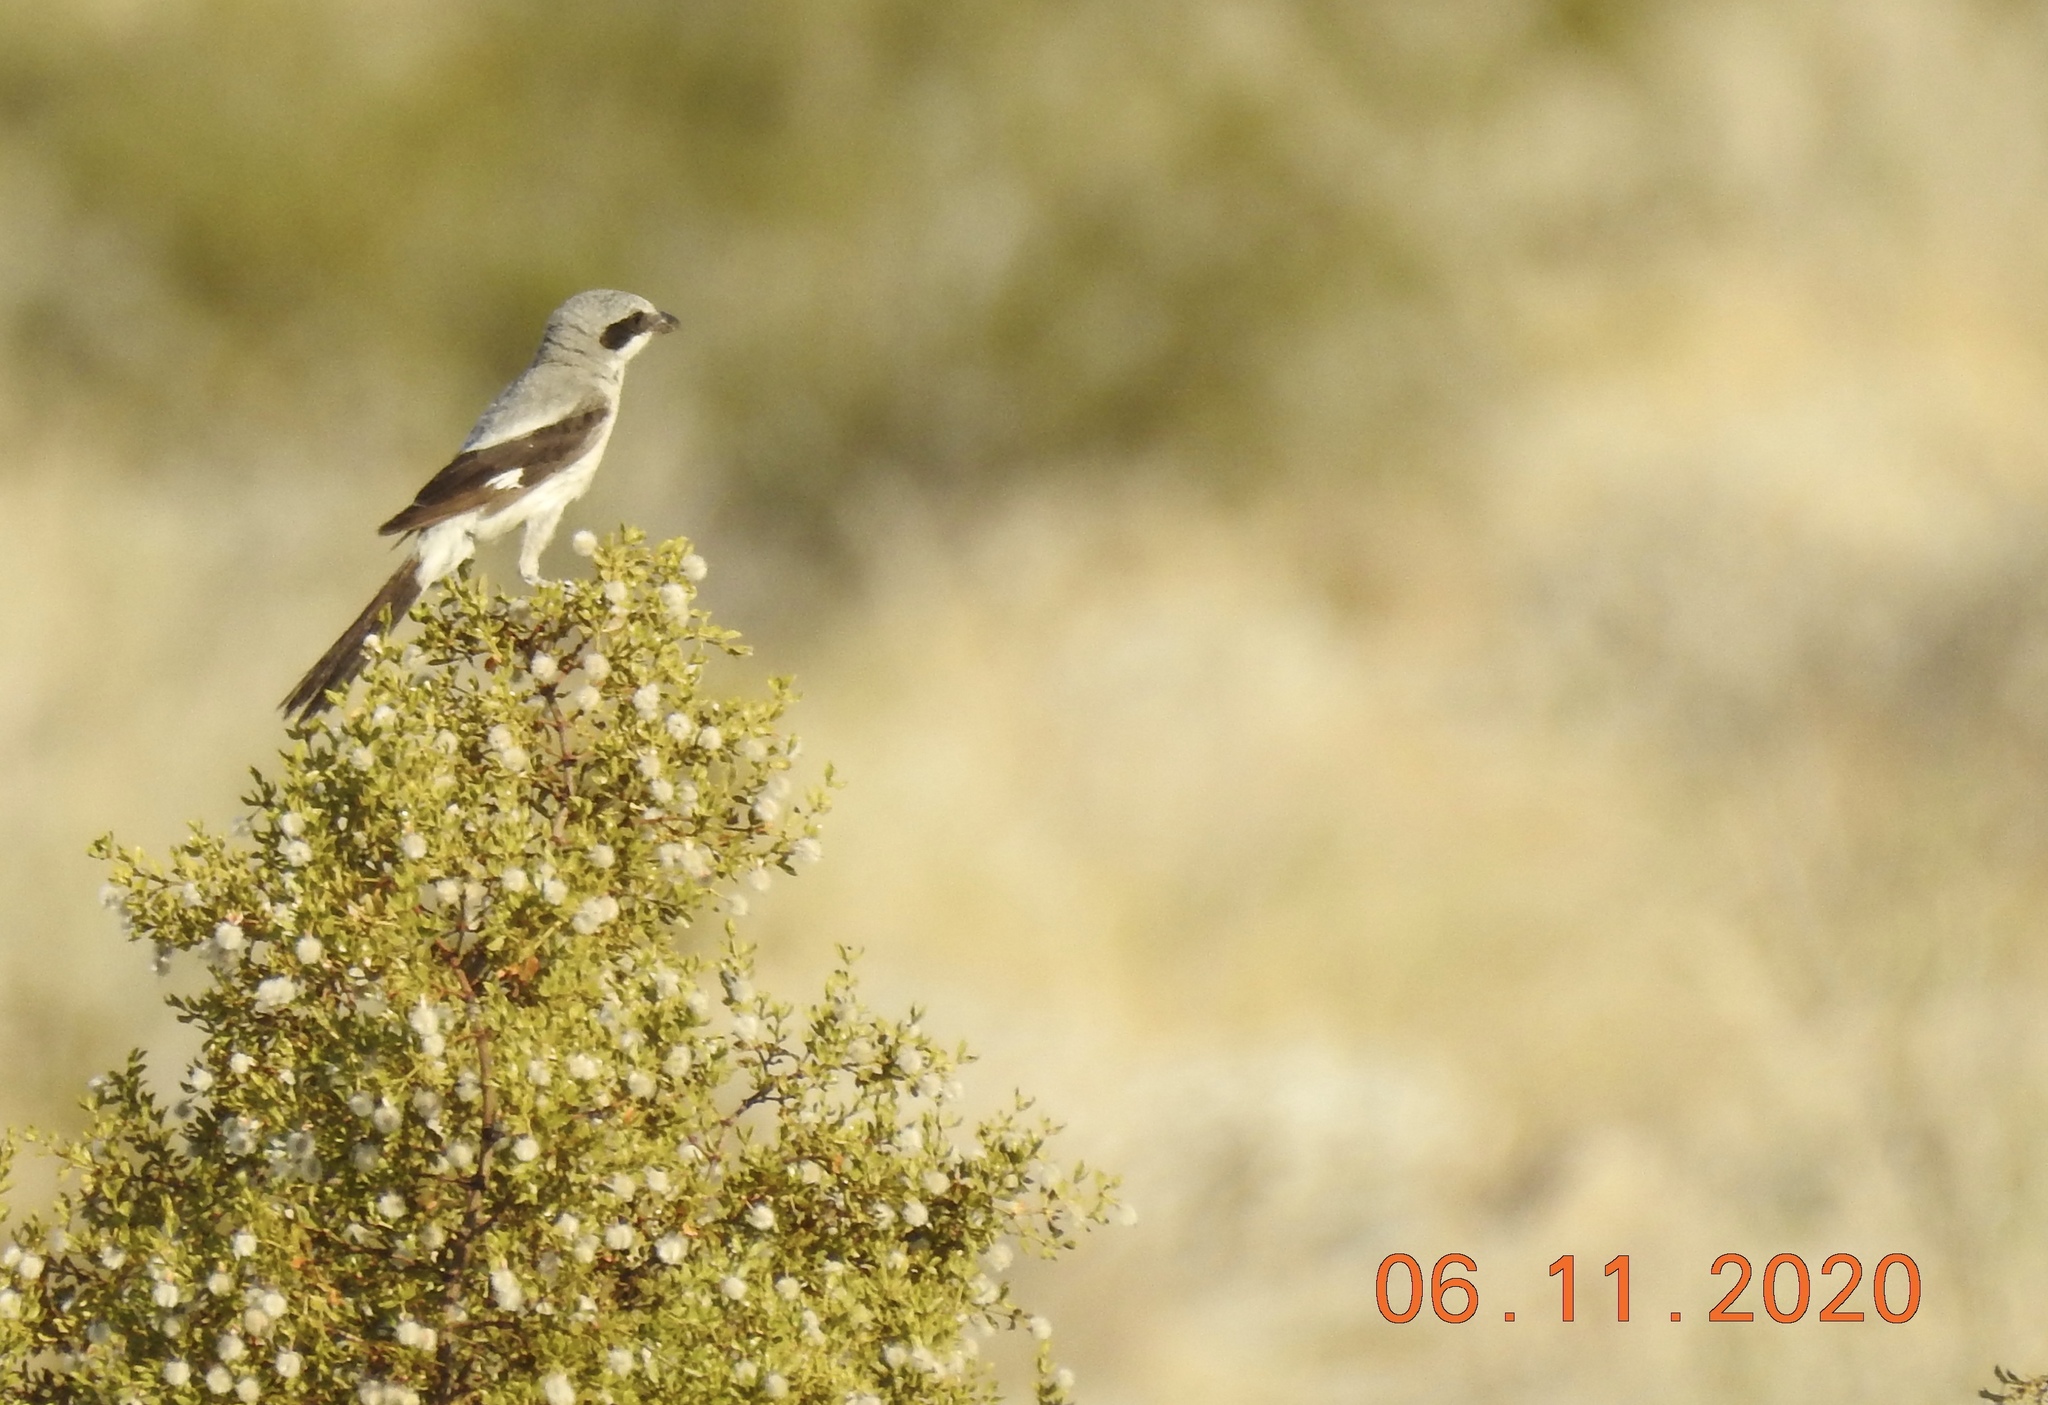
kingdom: Animalia
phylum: Chordata
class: Aves
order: Passeriformes
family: Laniidae
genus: Lanius
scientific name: Lanius ludovicianus
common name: Loggerhead shrike
